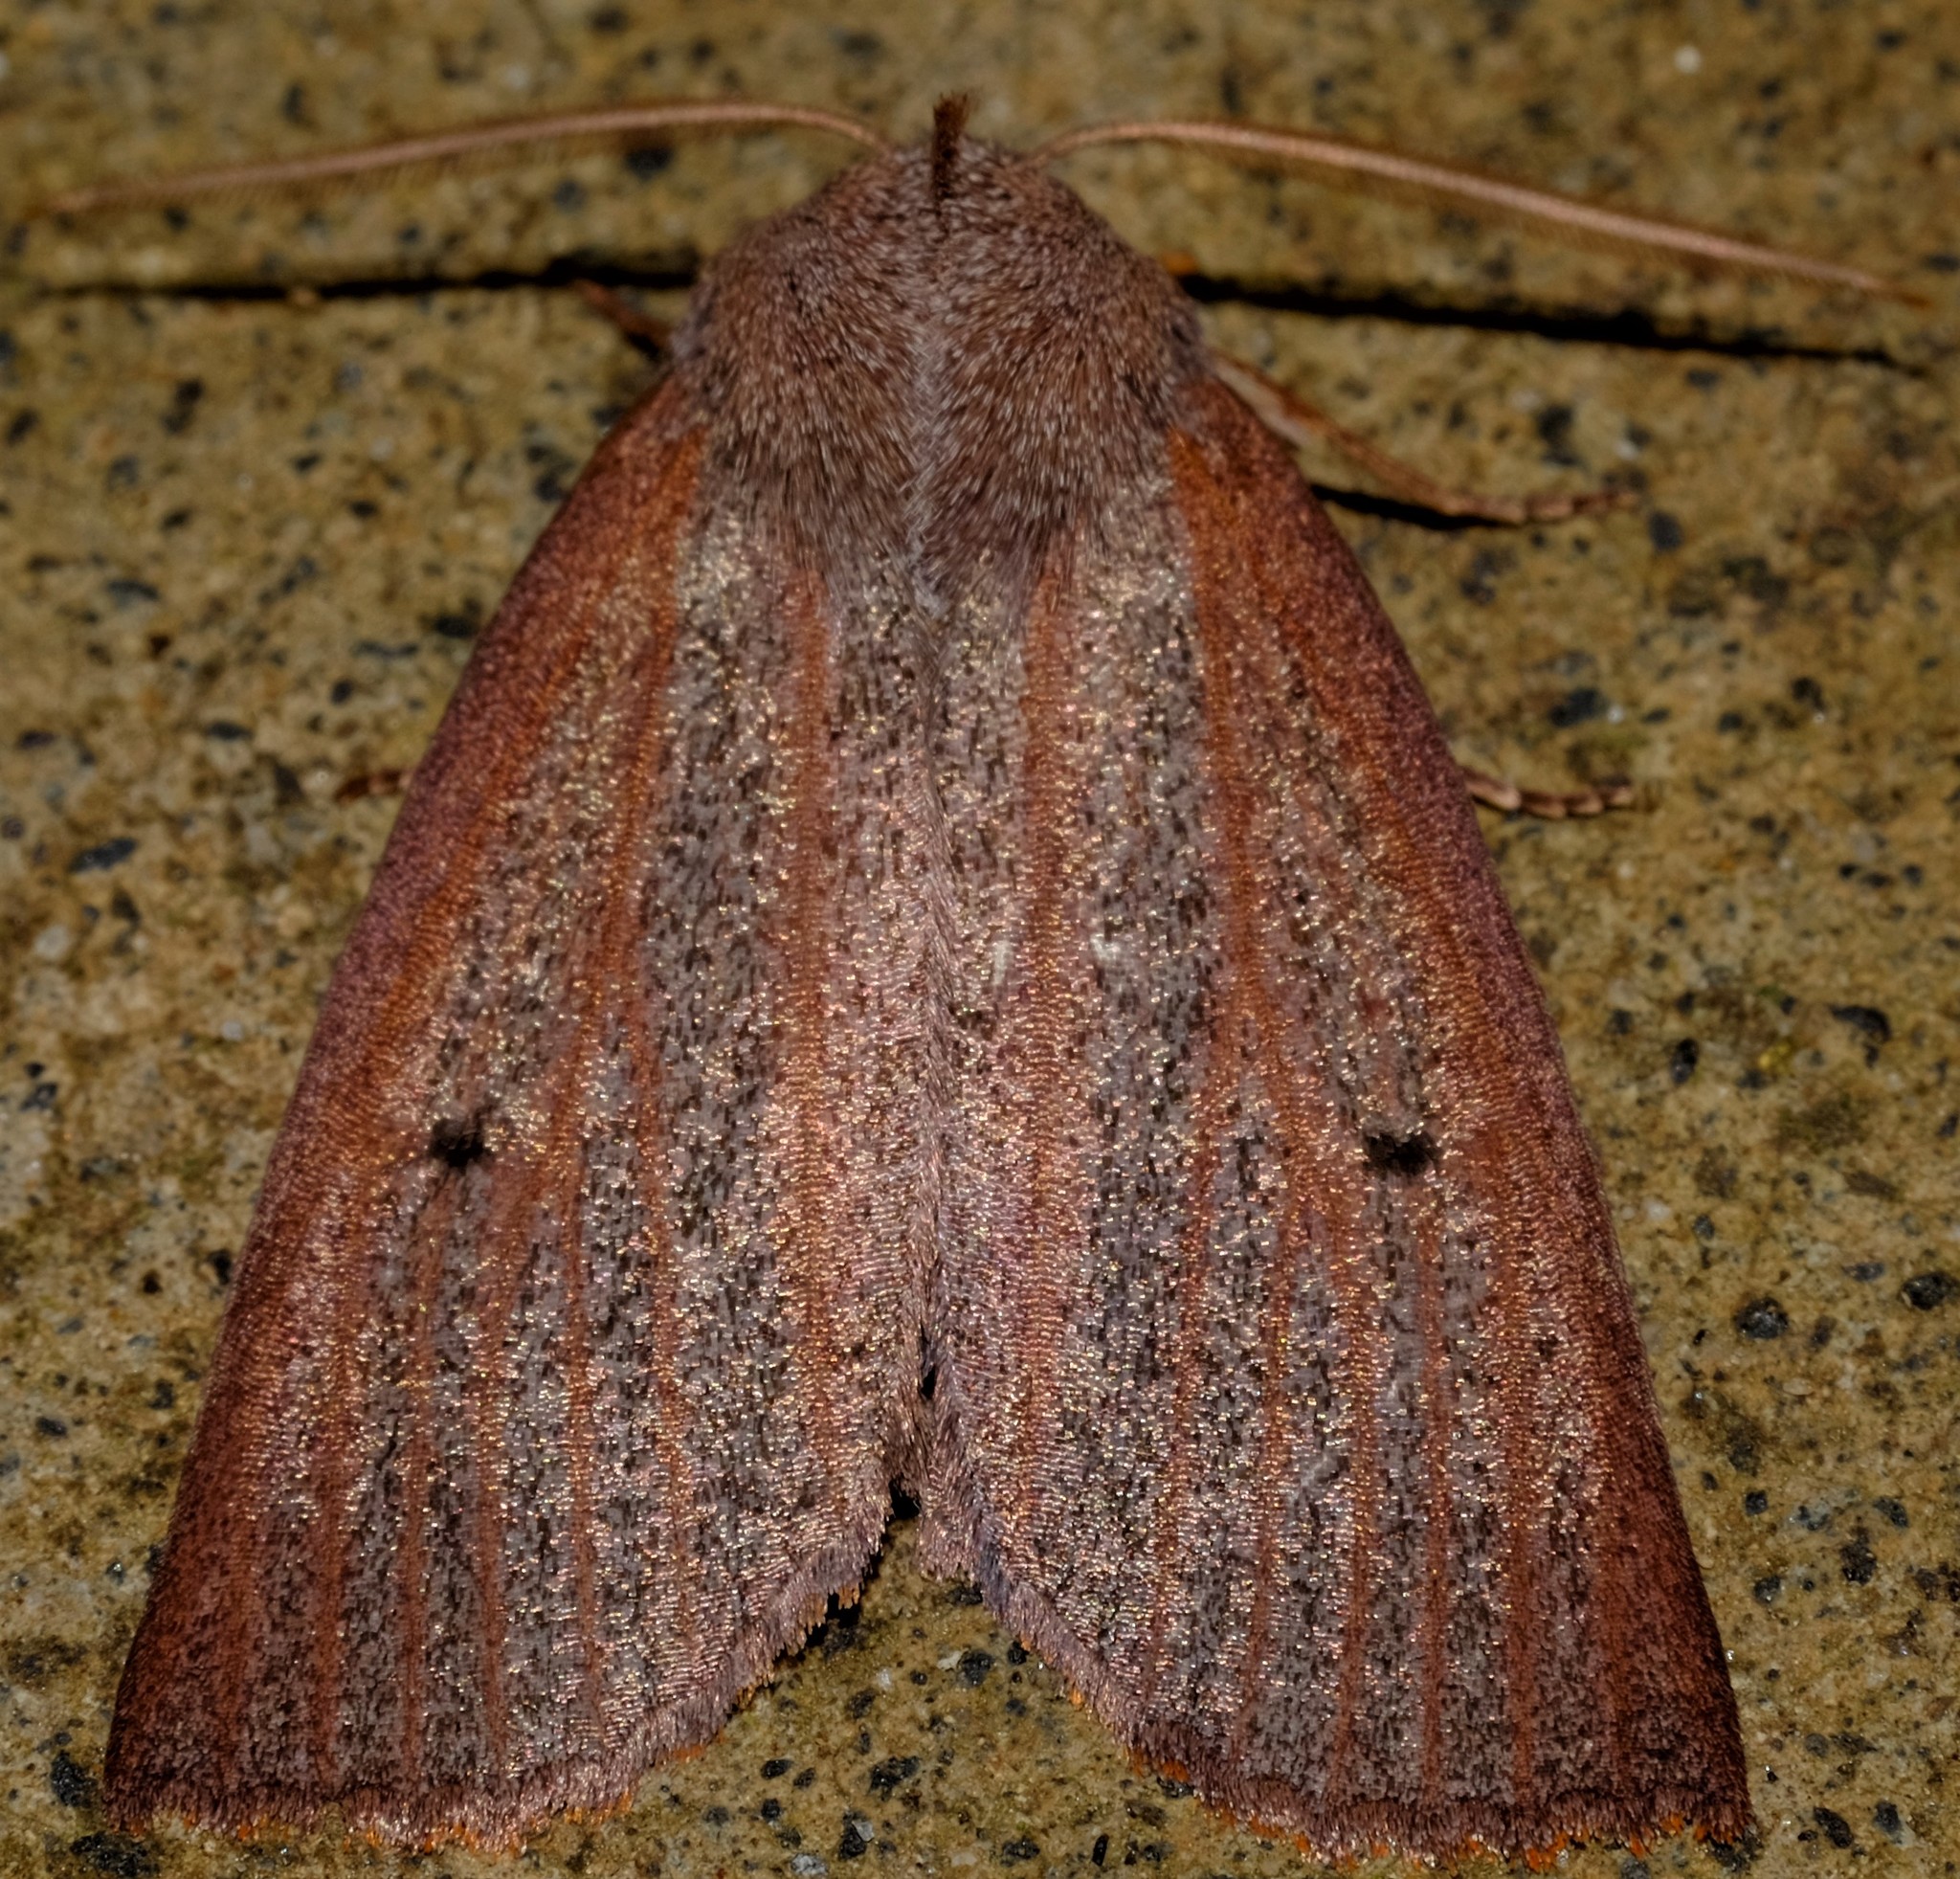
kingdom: Animalia
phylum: Arthropoda
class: Insecta
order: Lepidoptera
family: Geometridae
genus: Paralaea
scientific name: Paralaea porphyrinaria
